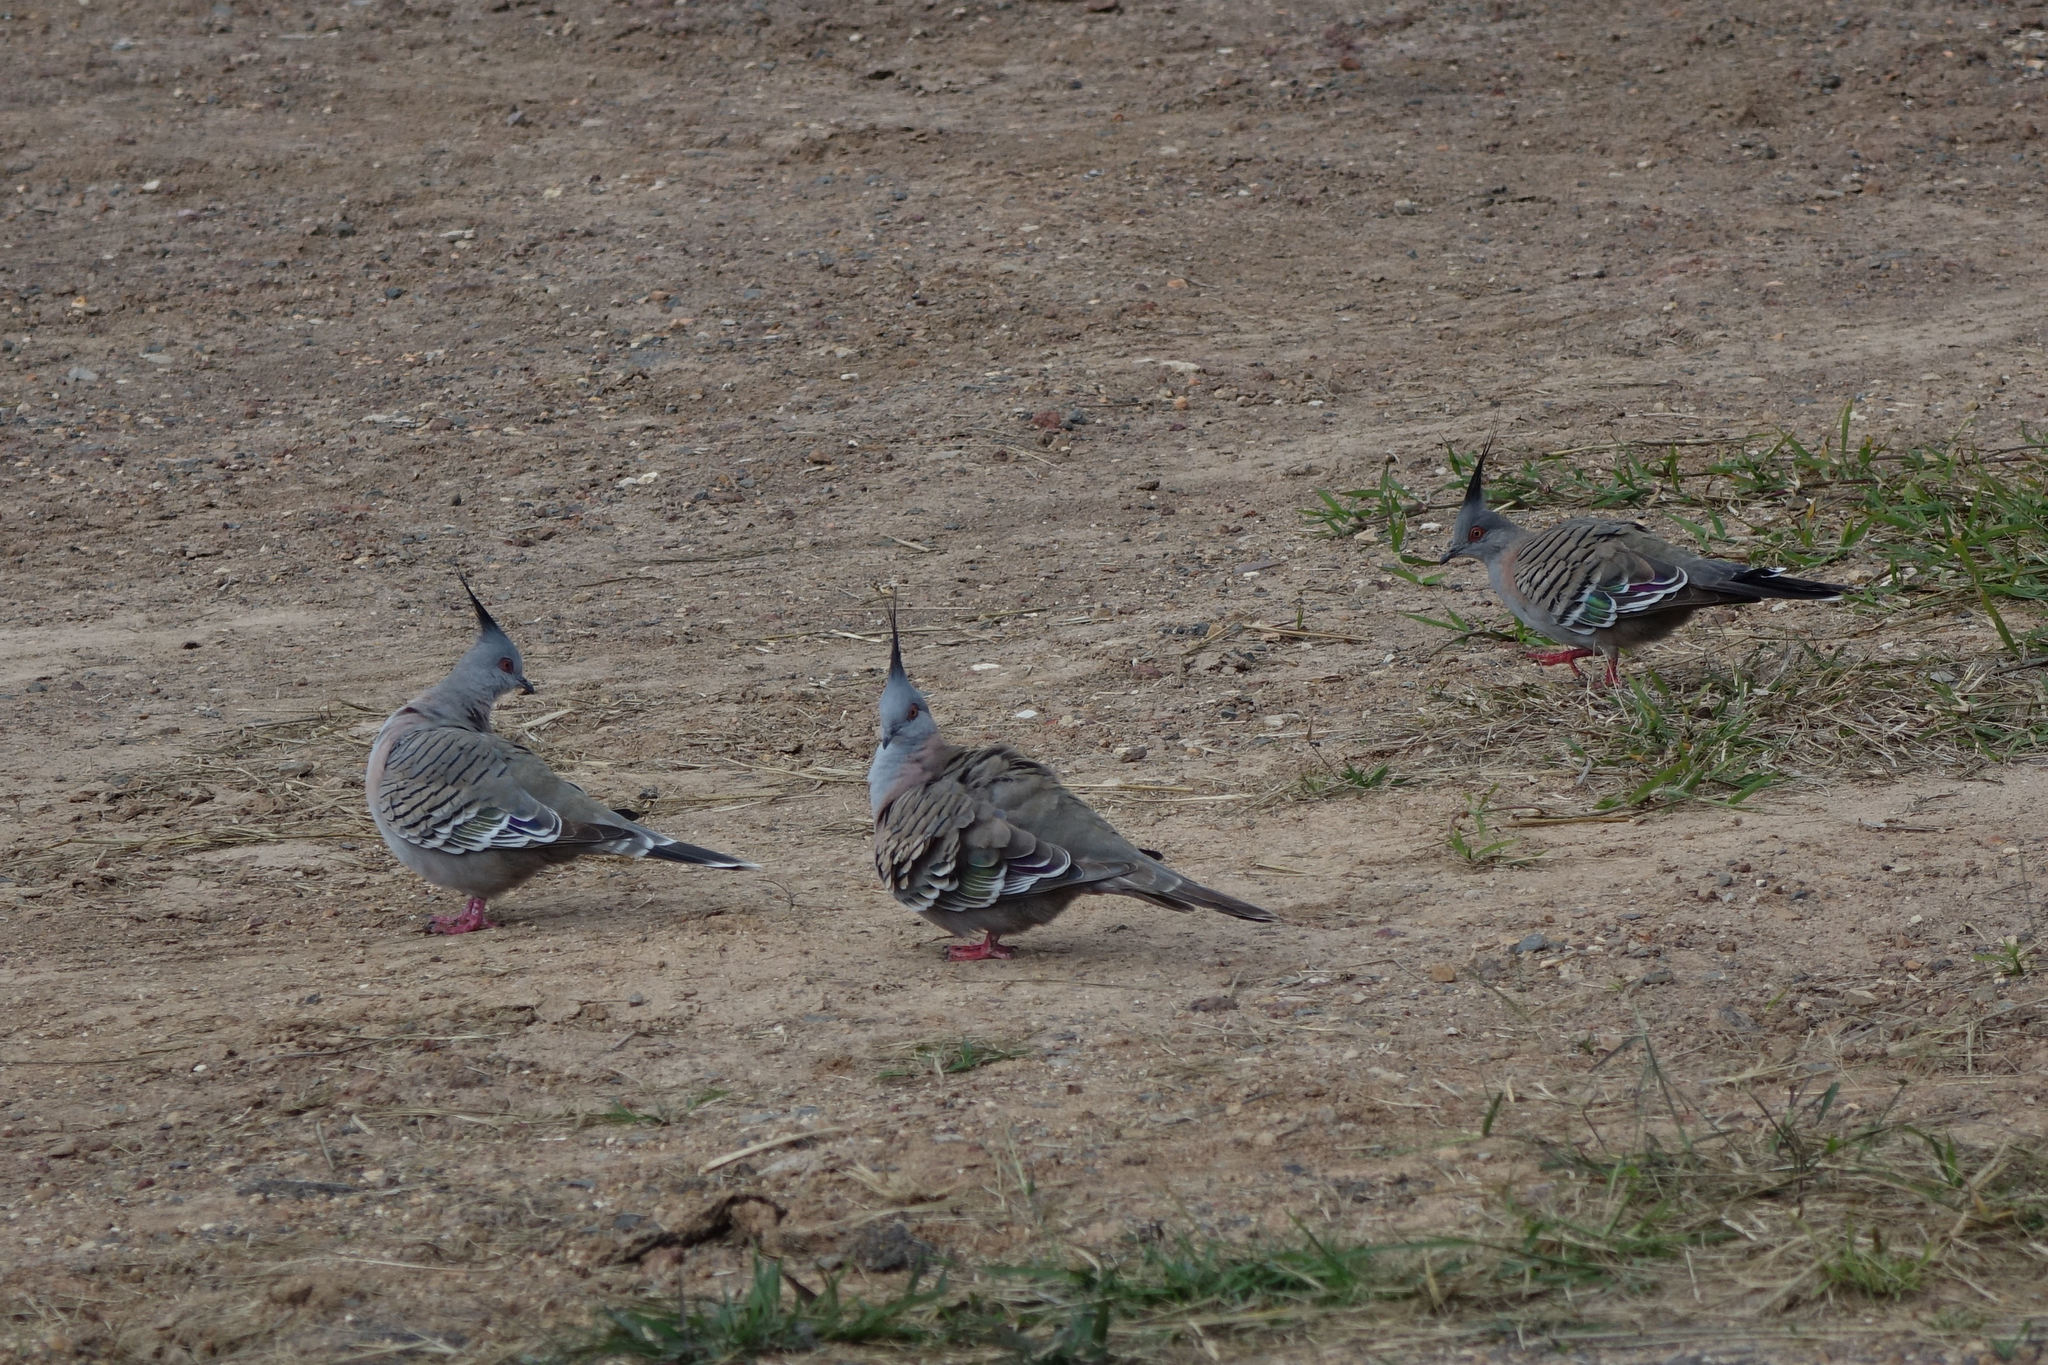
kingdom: Animalia
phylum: Chordata
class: Aves
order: Columbiformes
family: Columbidae
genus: Ocyphaps
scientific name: Ocyphaps lophotes
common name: Crested pigeon
